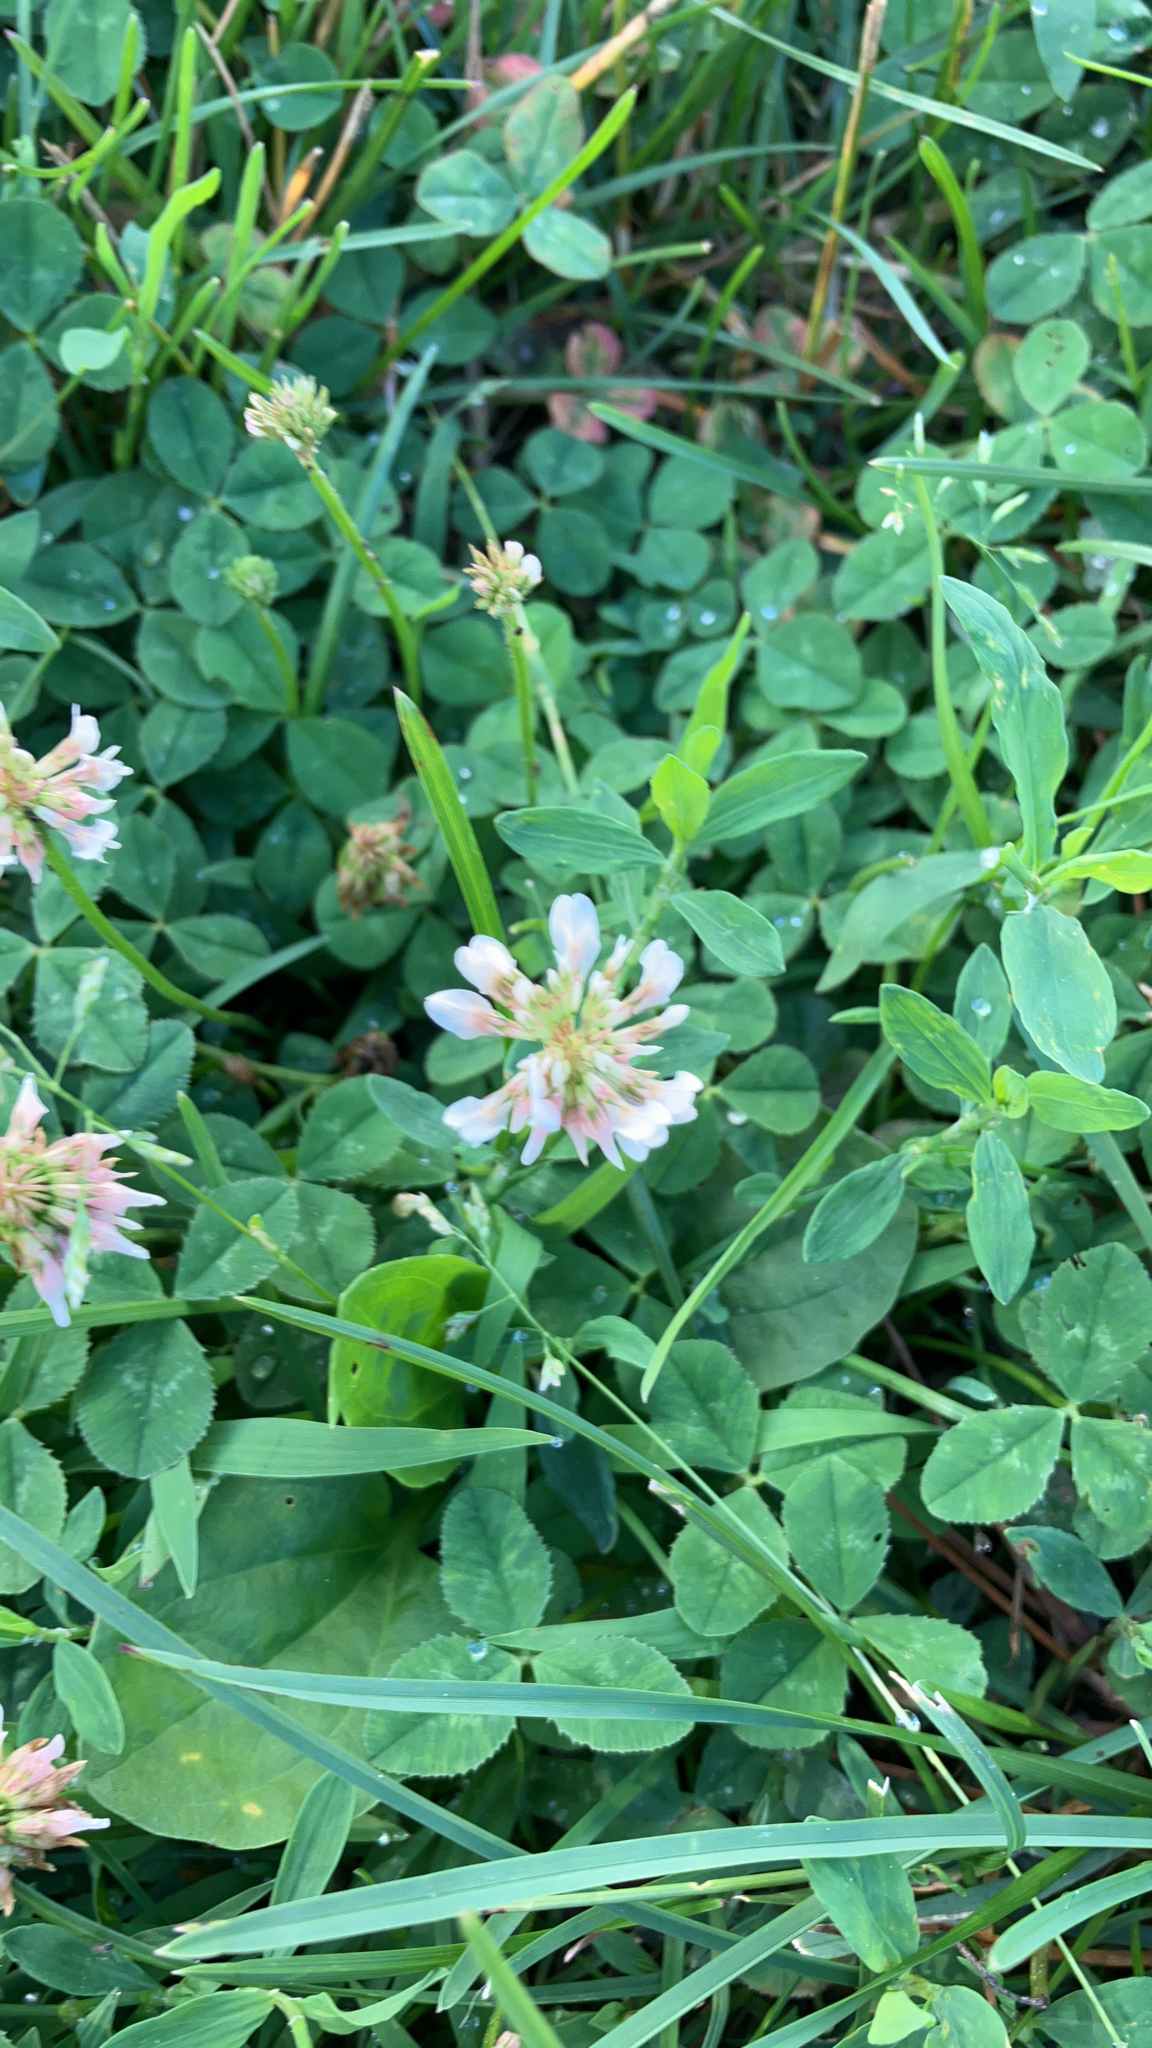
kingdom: Plantae
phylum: Tracheophyta
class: Magnoliopsida
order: Fabales
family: Fabaceae
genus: Trifolium
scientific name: Trifolium repens
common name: White clover
